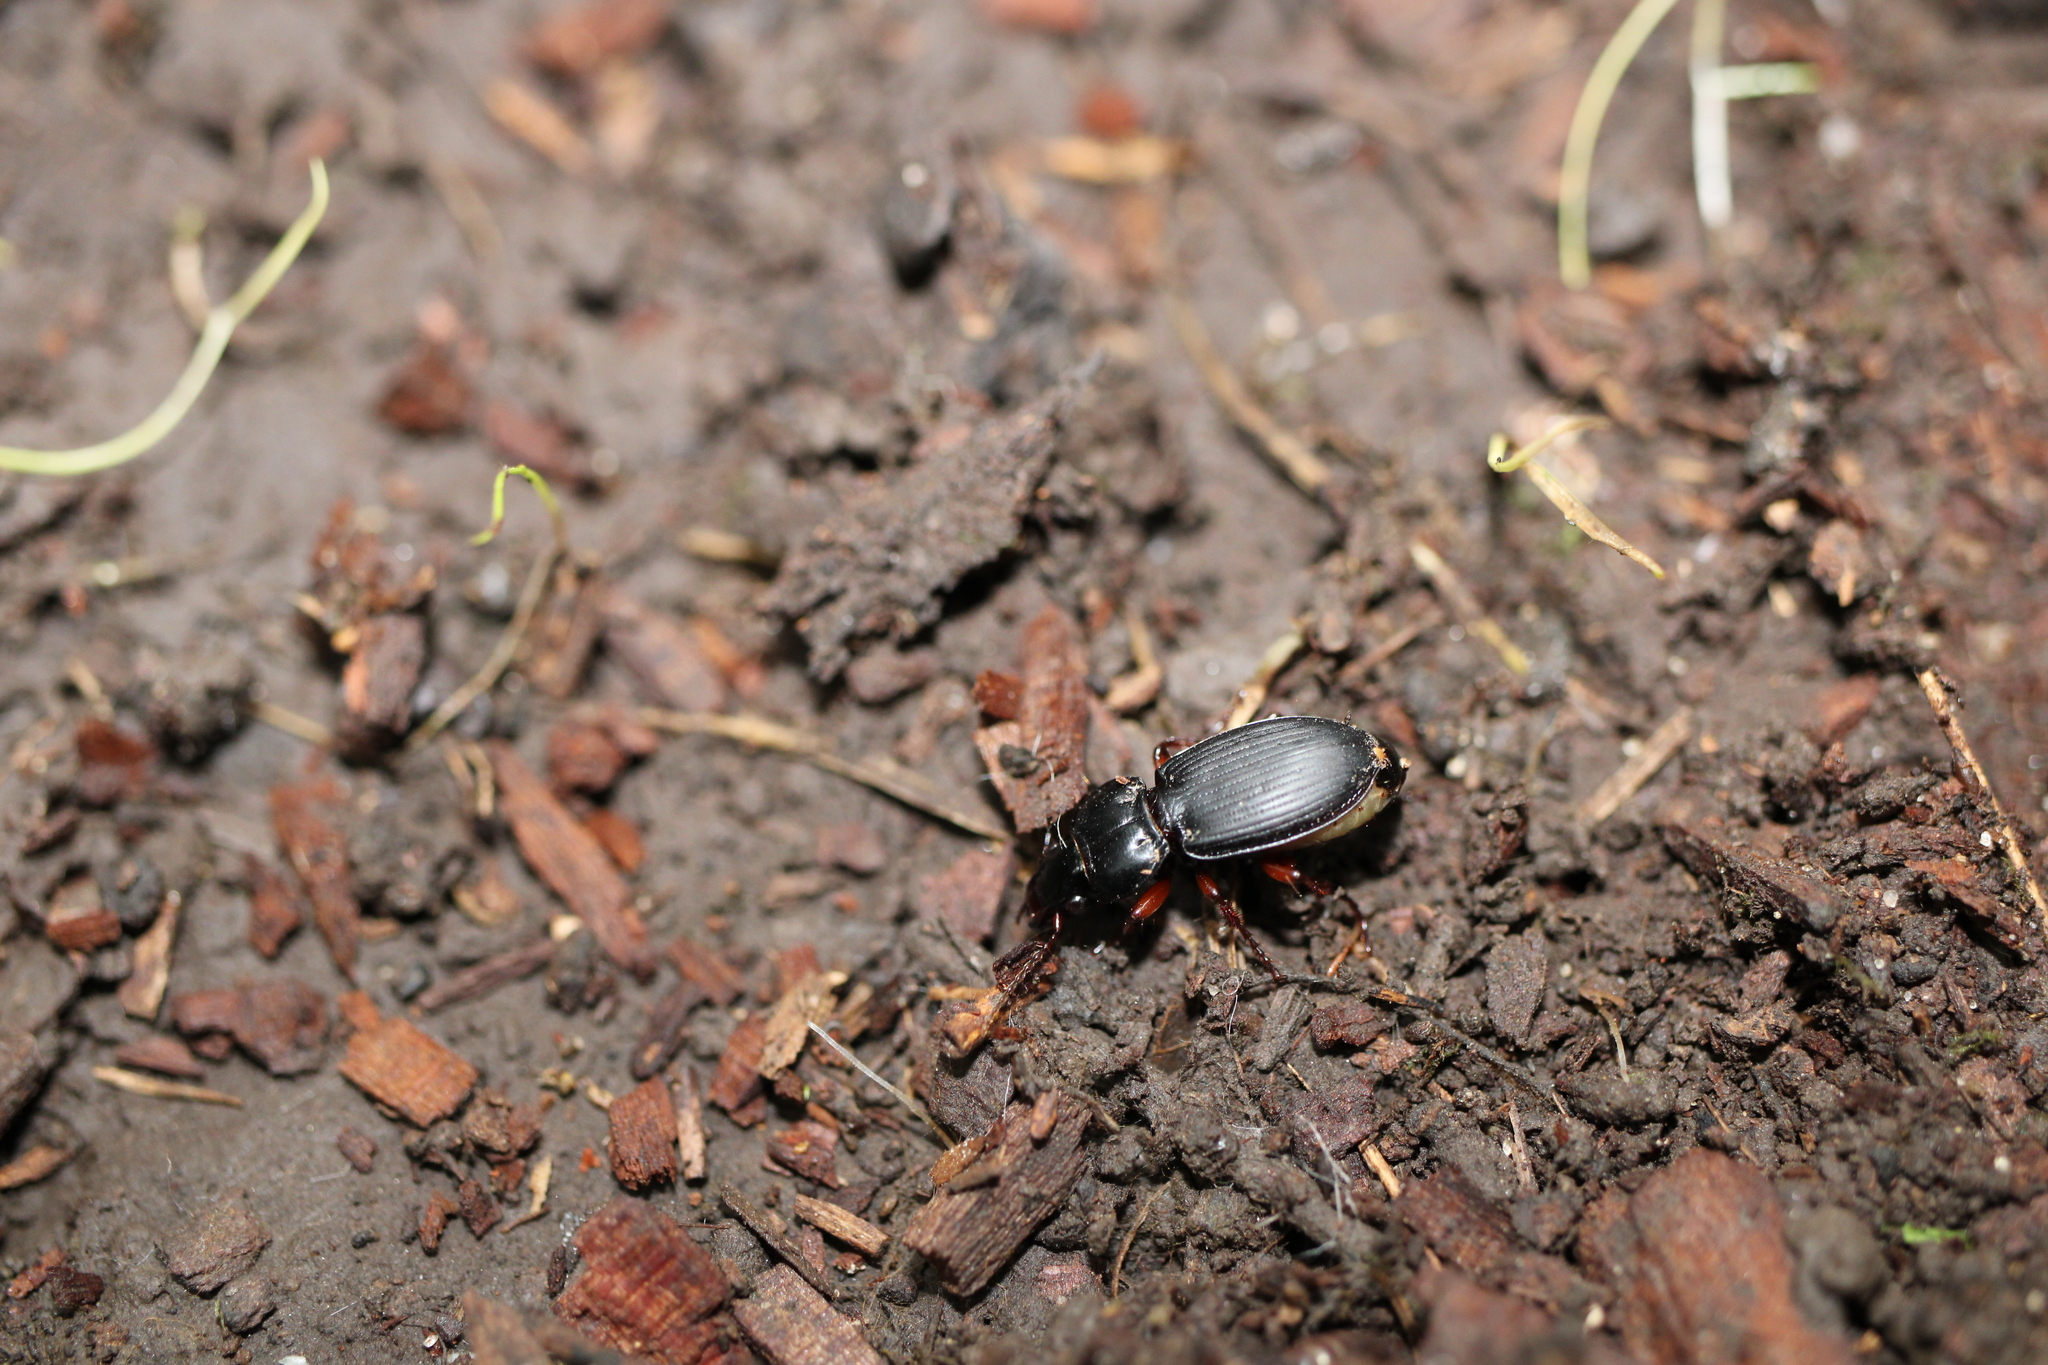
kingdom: Animalia
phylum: Arthropoda
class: Insecta
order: Coleoptera
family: Carabidae
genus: Cyclotrachelus
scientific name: Cyclotrachelus seximpressus
